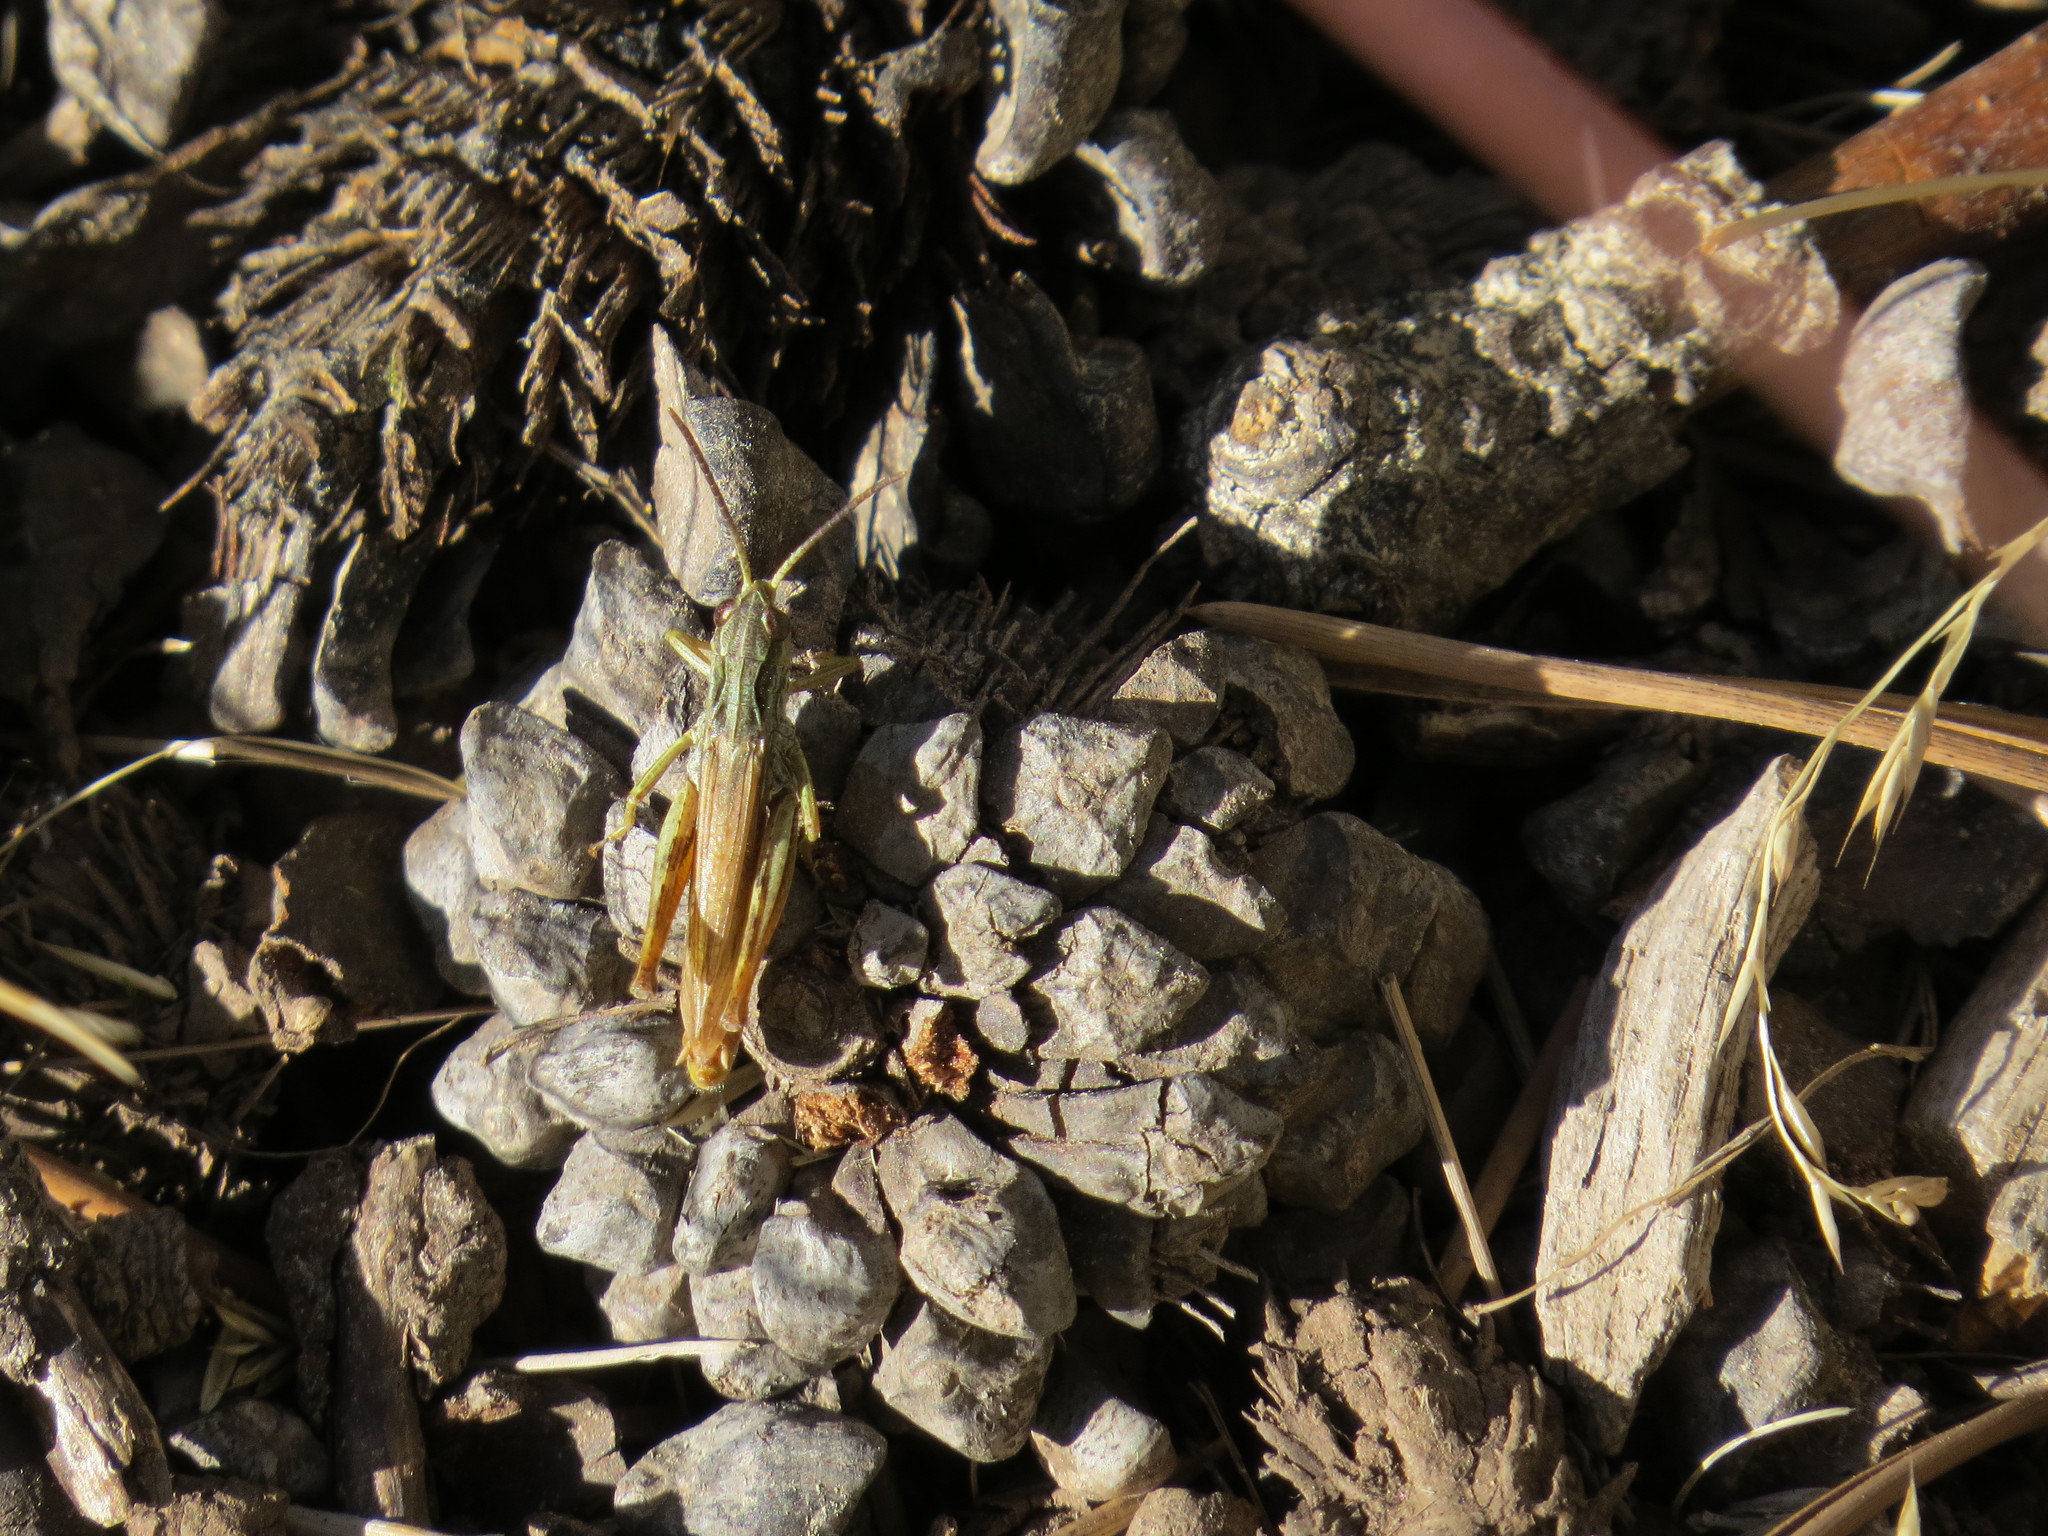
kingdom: Animalia
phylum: Arthropoda
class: Insecta
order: Orthoptera
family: Acrididae
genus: Chorthippus
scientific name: Chorthippus apricarius
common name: Upland field grasshopper
